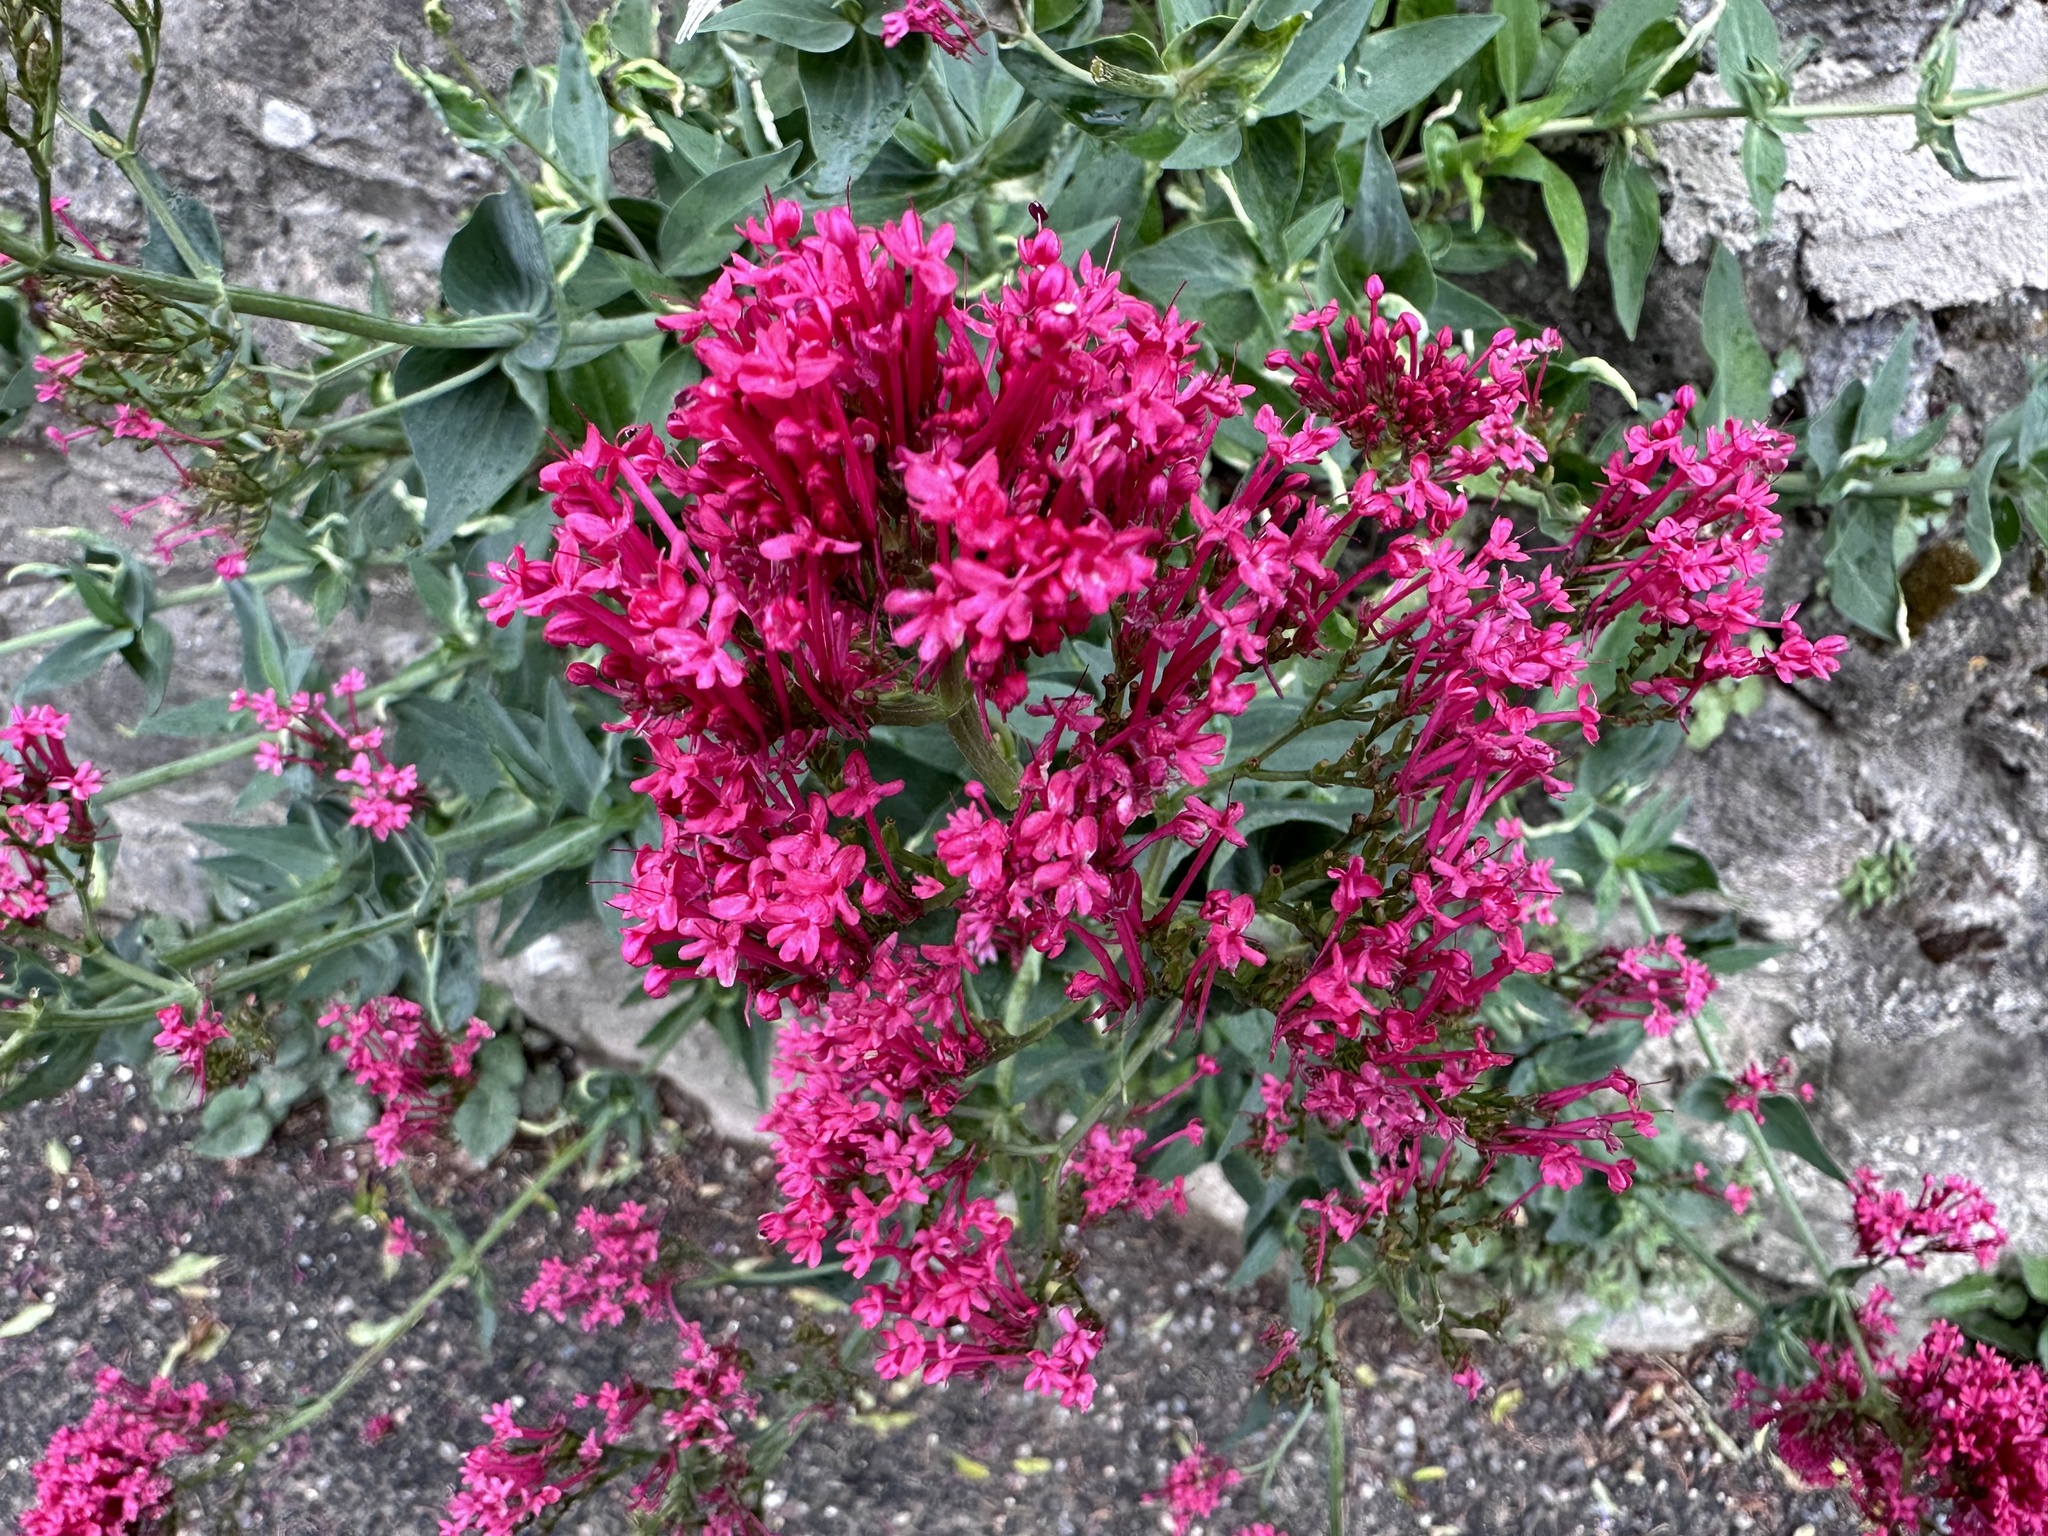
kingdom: Plantae
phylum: Tracheophyta
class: Magnoliopsida
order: Dipsacales
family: Caprifoliaceae
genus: Centranthus
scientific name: Centranthus ruber
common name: Red valerian
